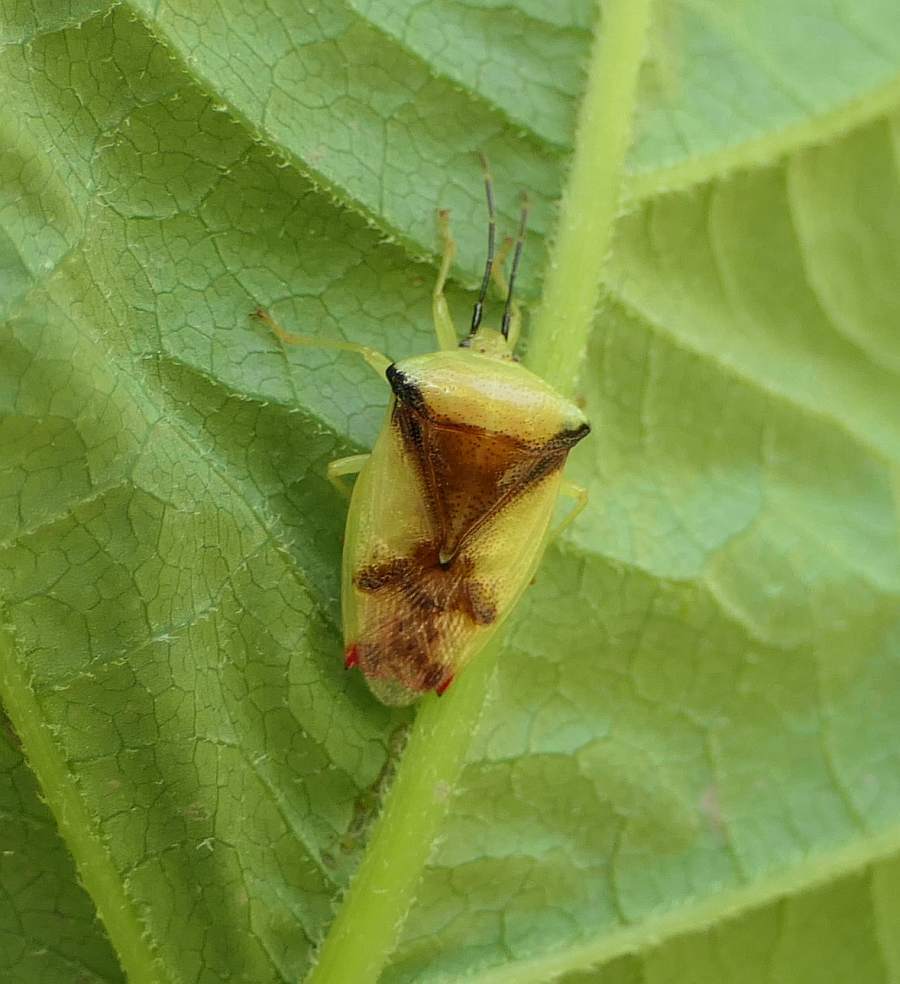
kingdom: Animalia
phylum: Arthropoda
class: Insecta
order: Hemiptera
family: Acanthosomatidae
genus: Elasmostethus
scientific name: Elasmostethus atricornis
